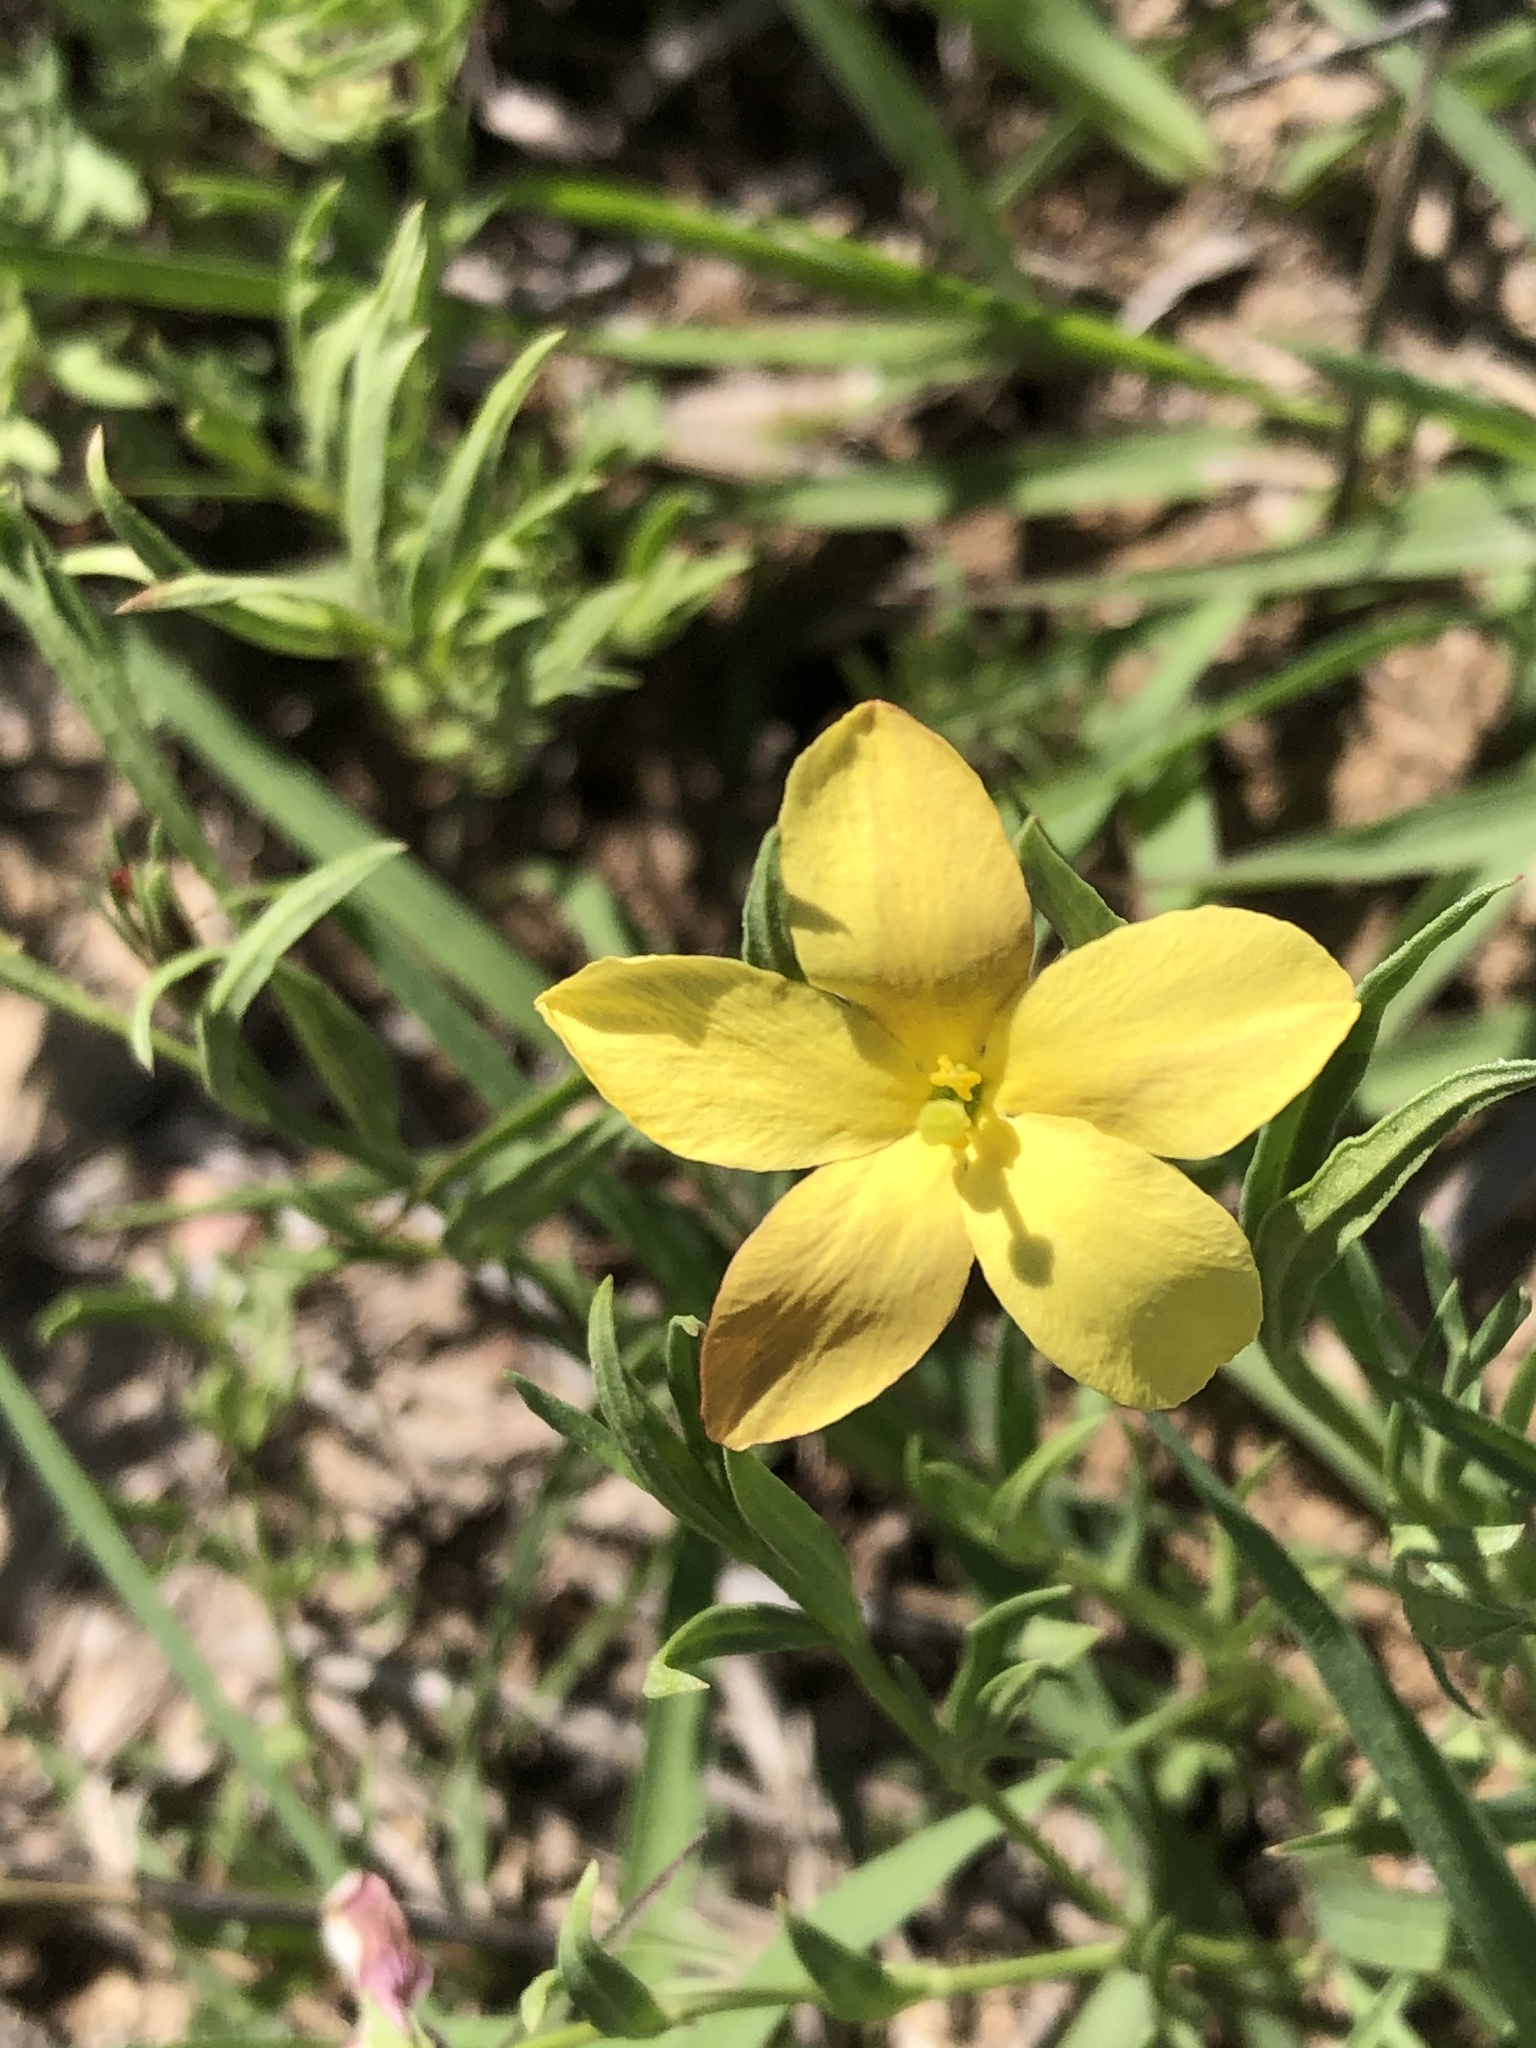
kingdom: Plantae
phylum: Tracheophyta
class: Magnoliopsida
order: Lamiales
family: Oleaceae
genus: Menodora
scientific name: Menodora heterophylla
